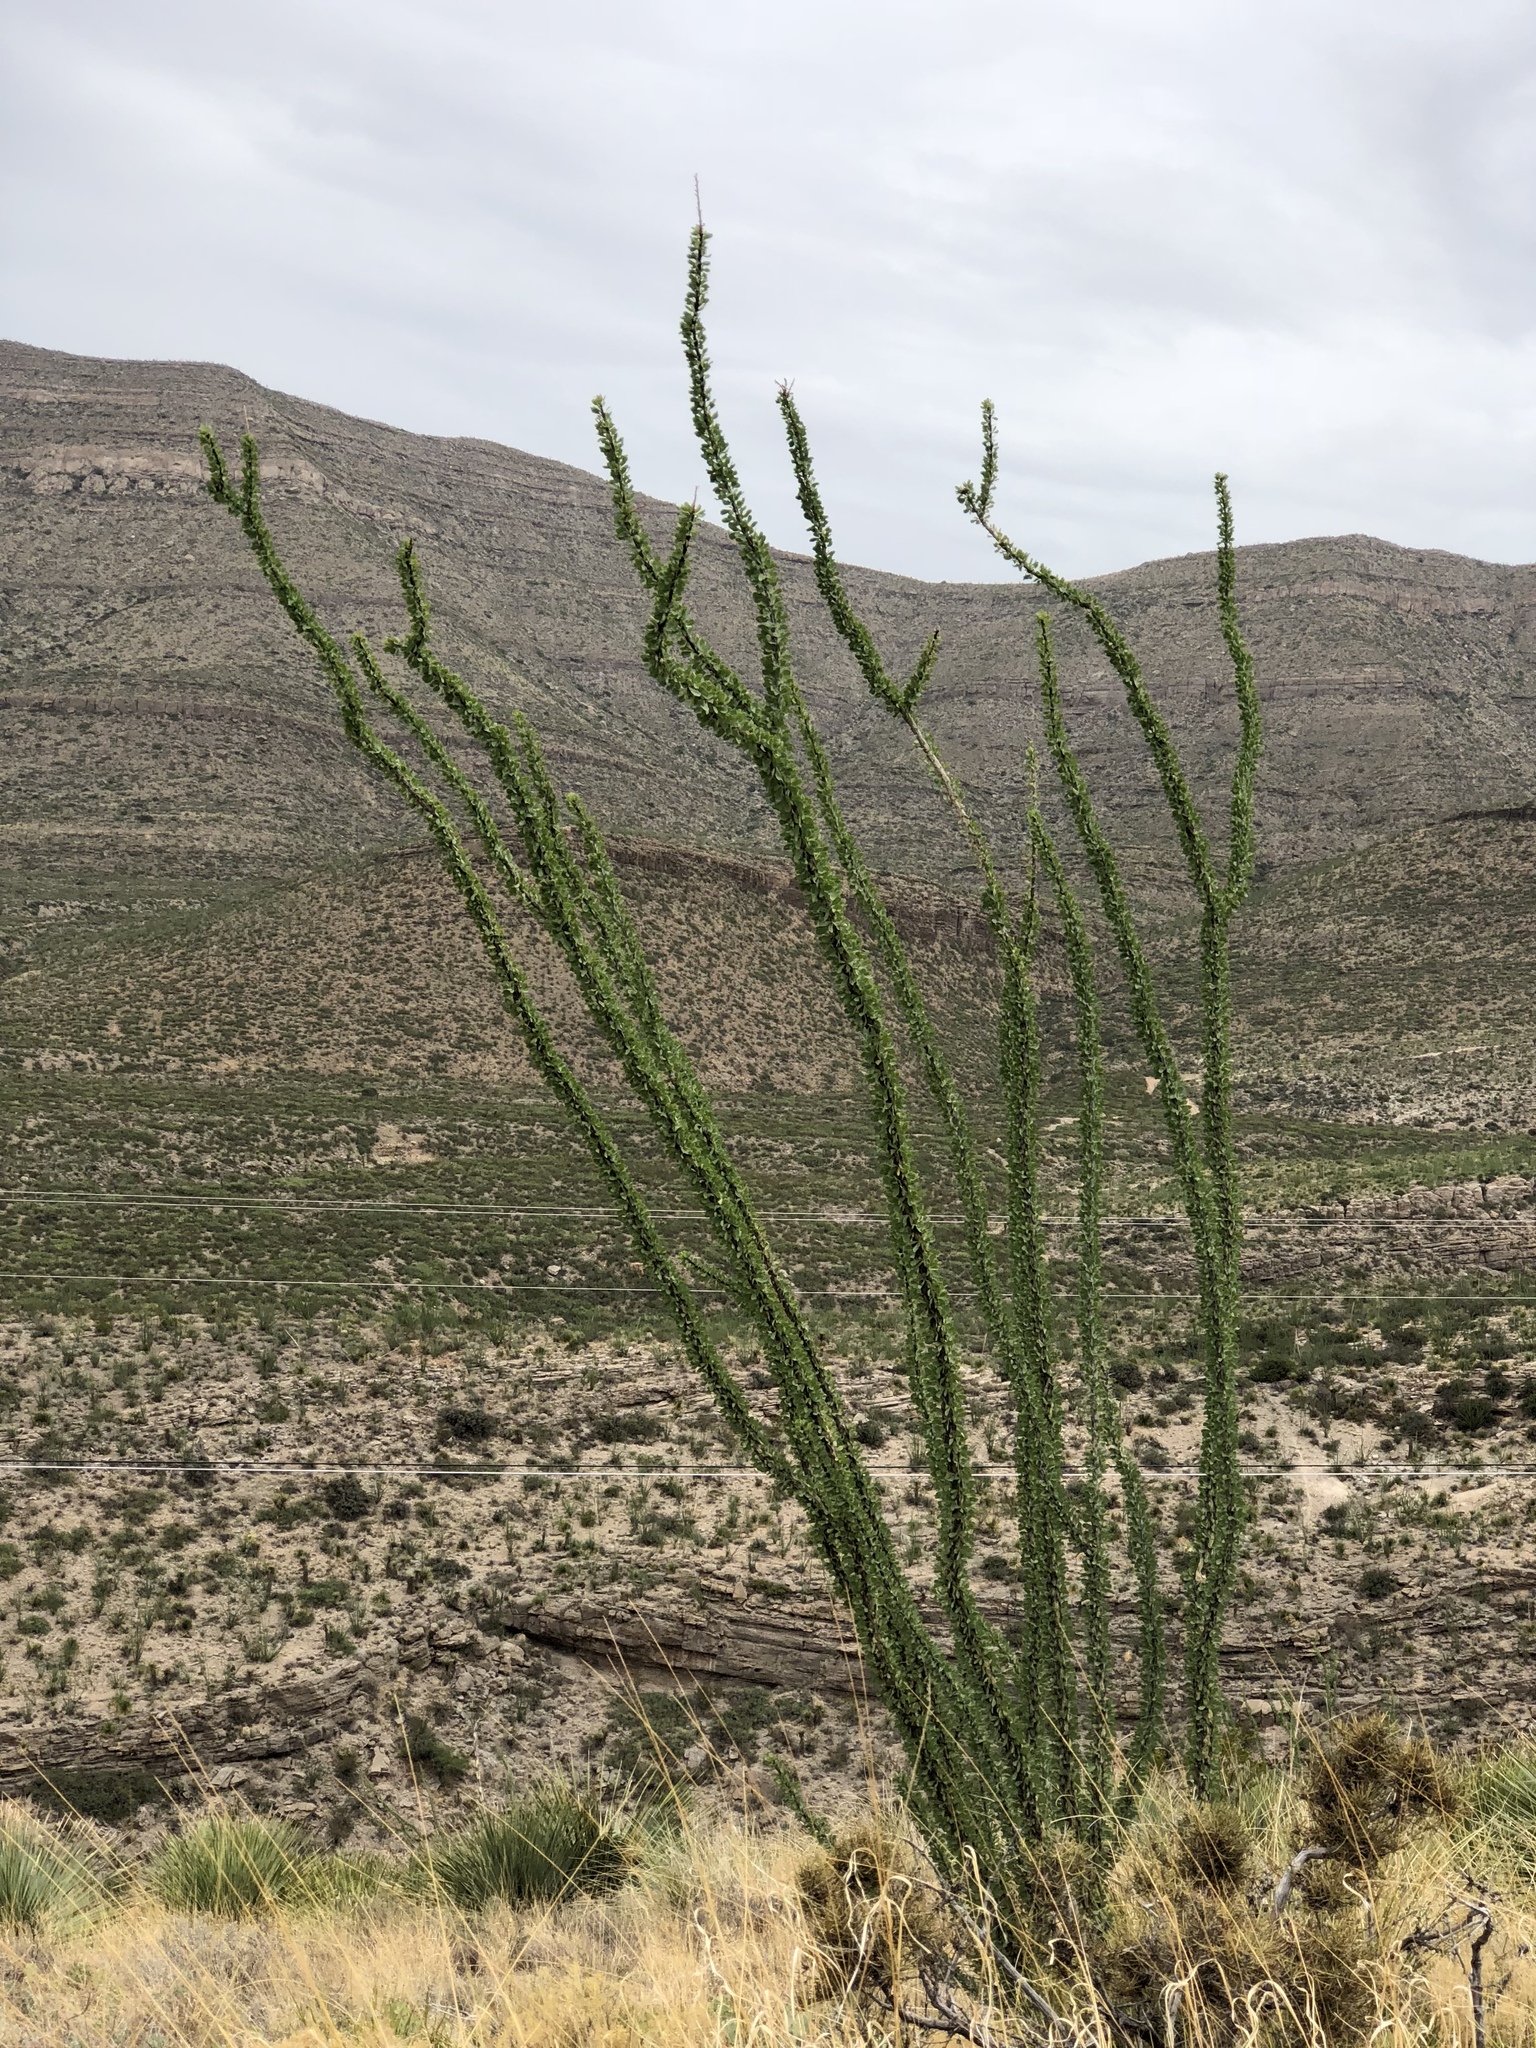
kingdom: Plantae
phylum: Tracheophyta
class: Magnoliopsida
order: Ericales
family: Fouquieriaceae
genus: Fouquieria
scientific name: Fouquieria splendens
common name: Vine-cactus
